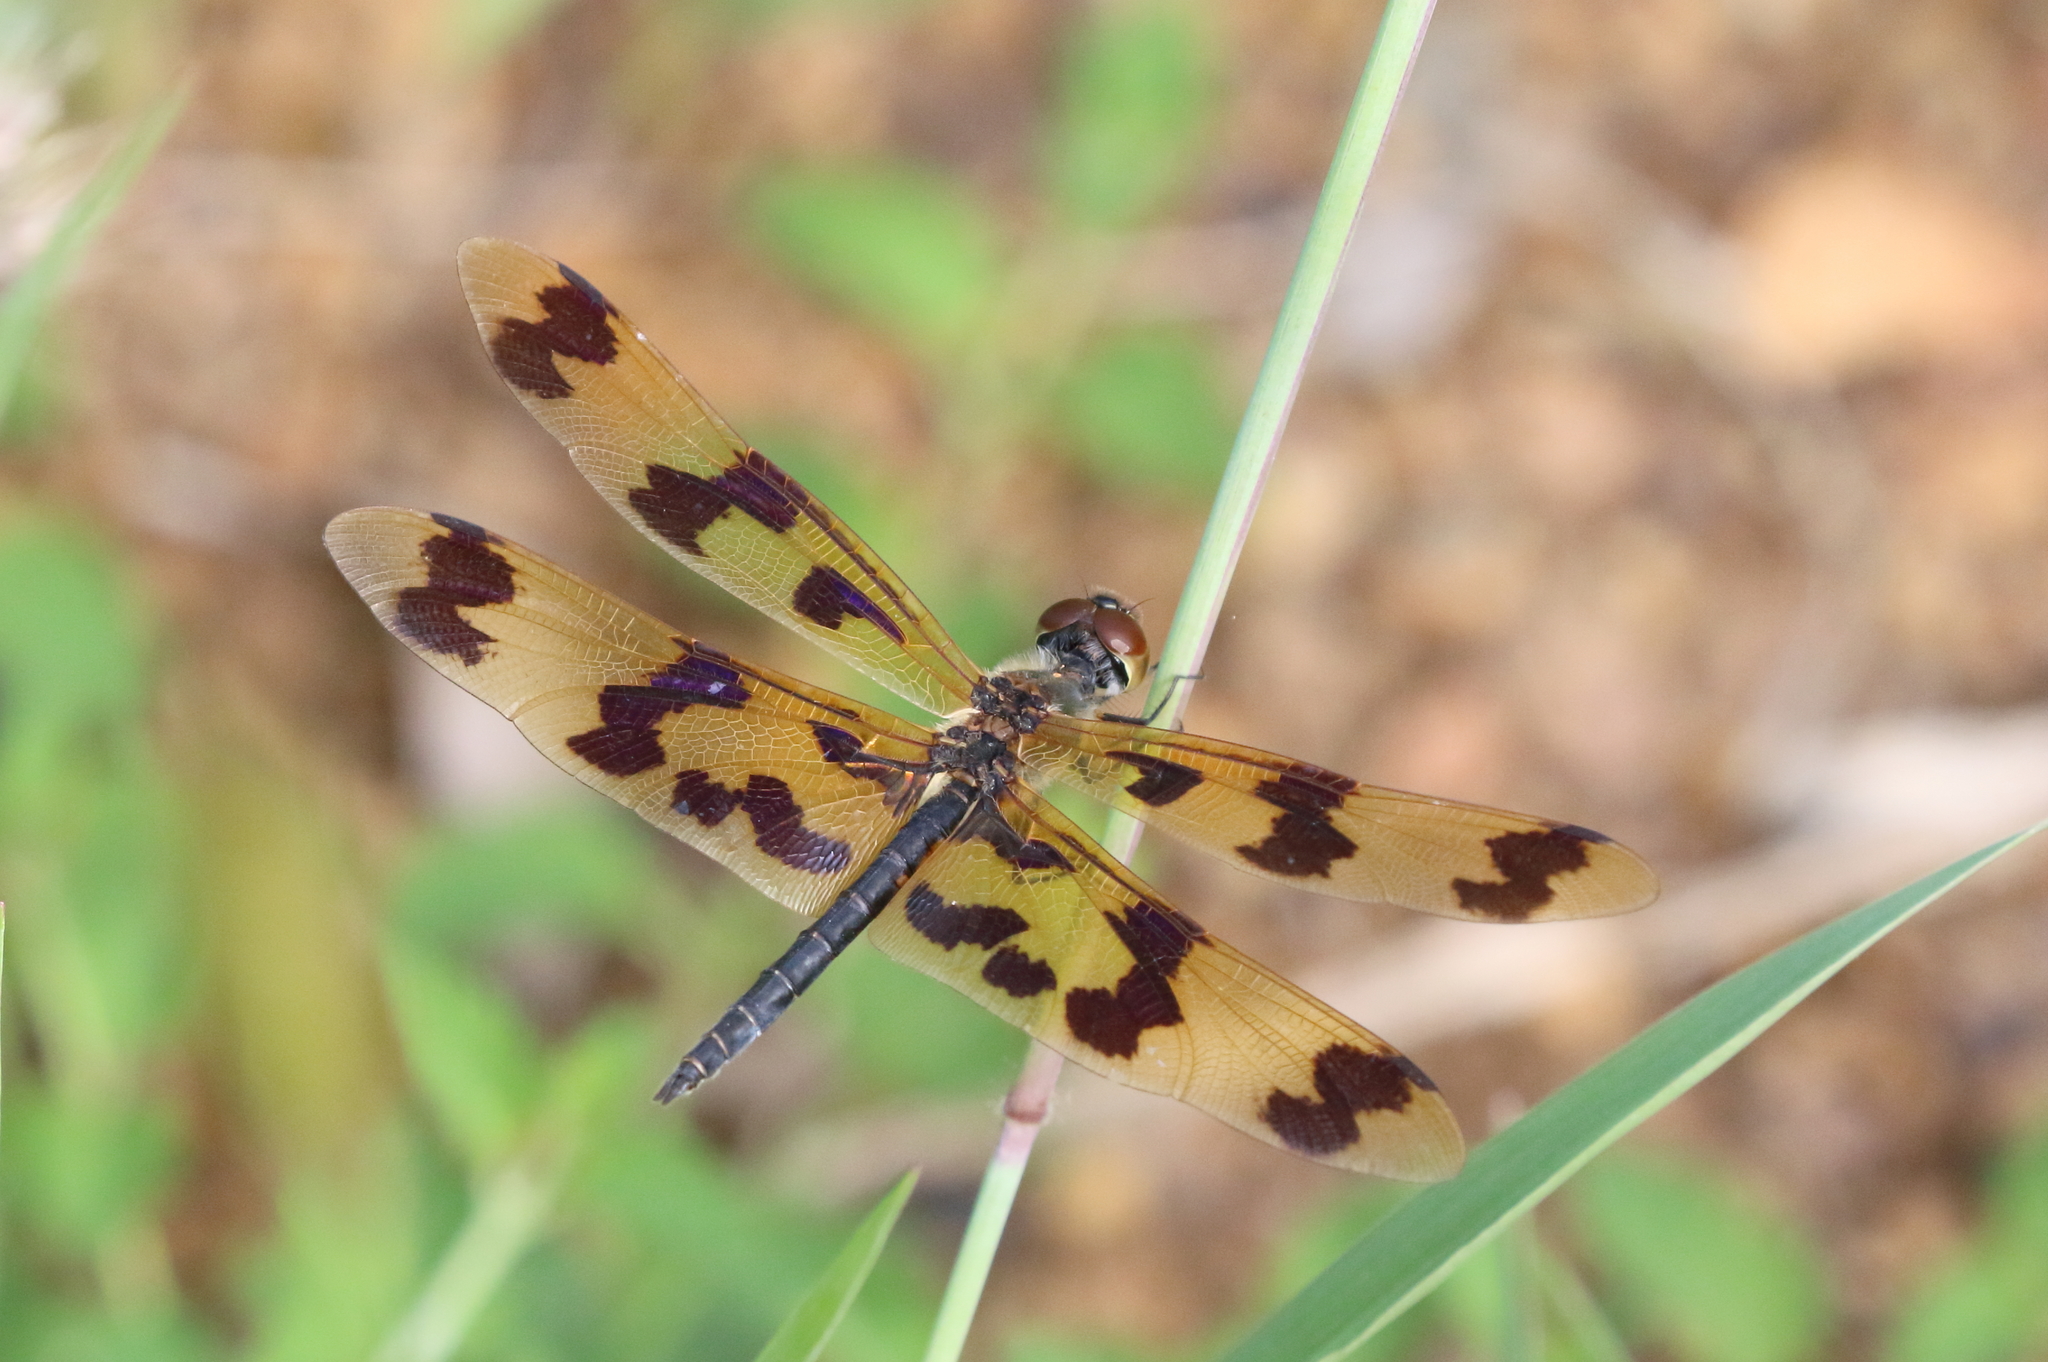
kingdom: Animalia
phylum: Arthropoda
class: Insecta
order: Odonata
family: Libellulidae
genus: Rhyothemis
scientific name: Rhyothemis graphiptera
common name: Graphic flutterer
